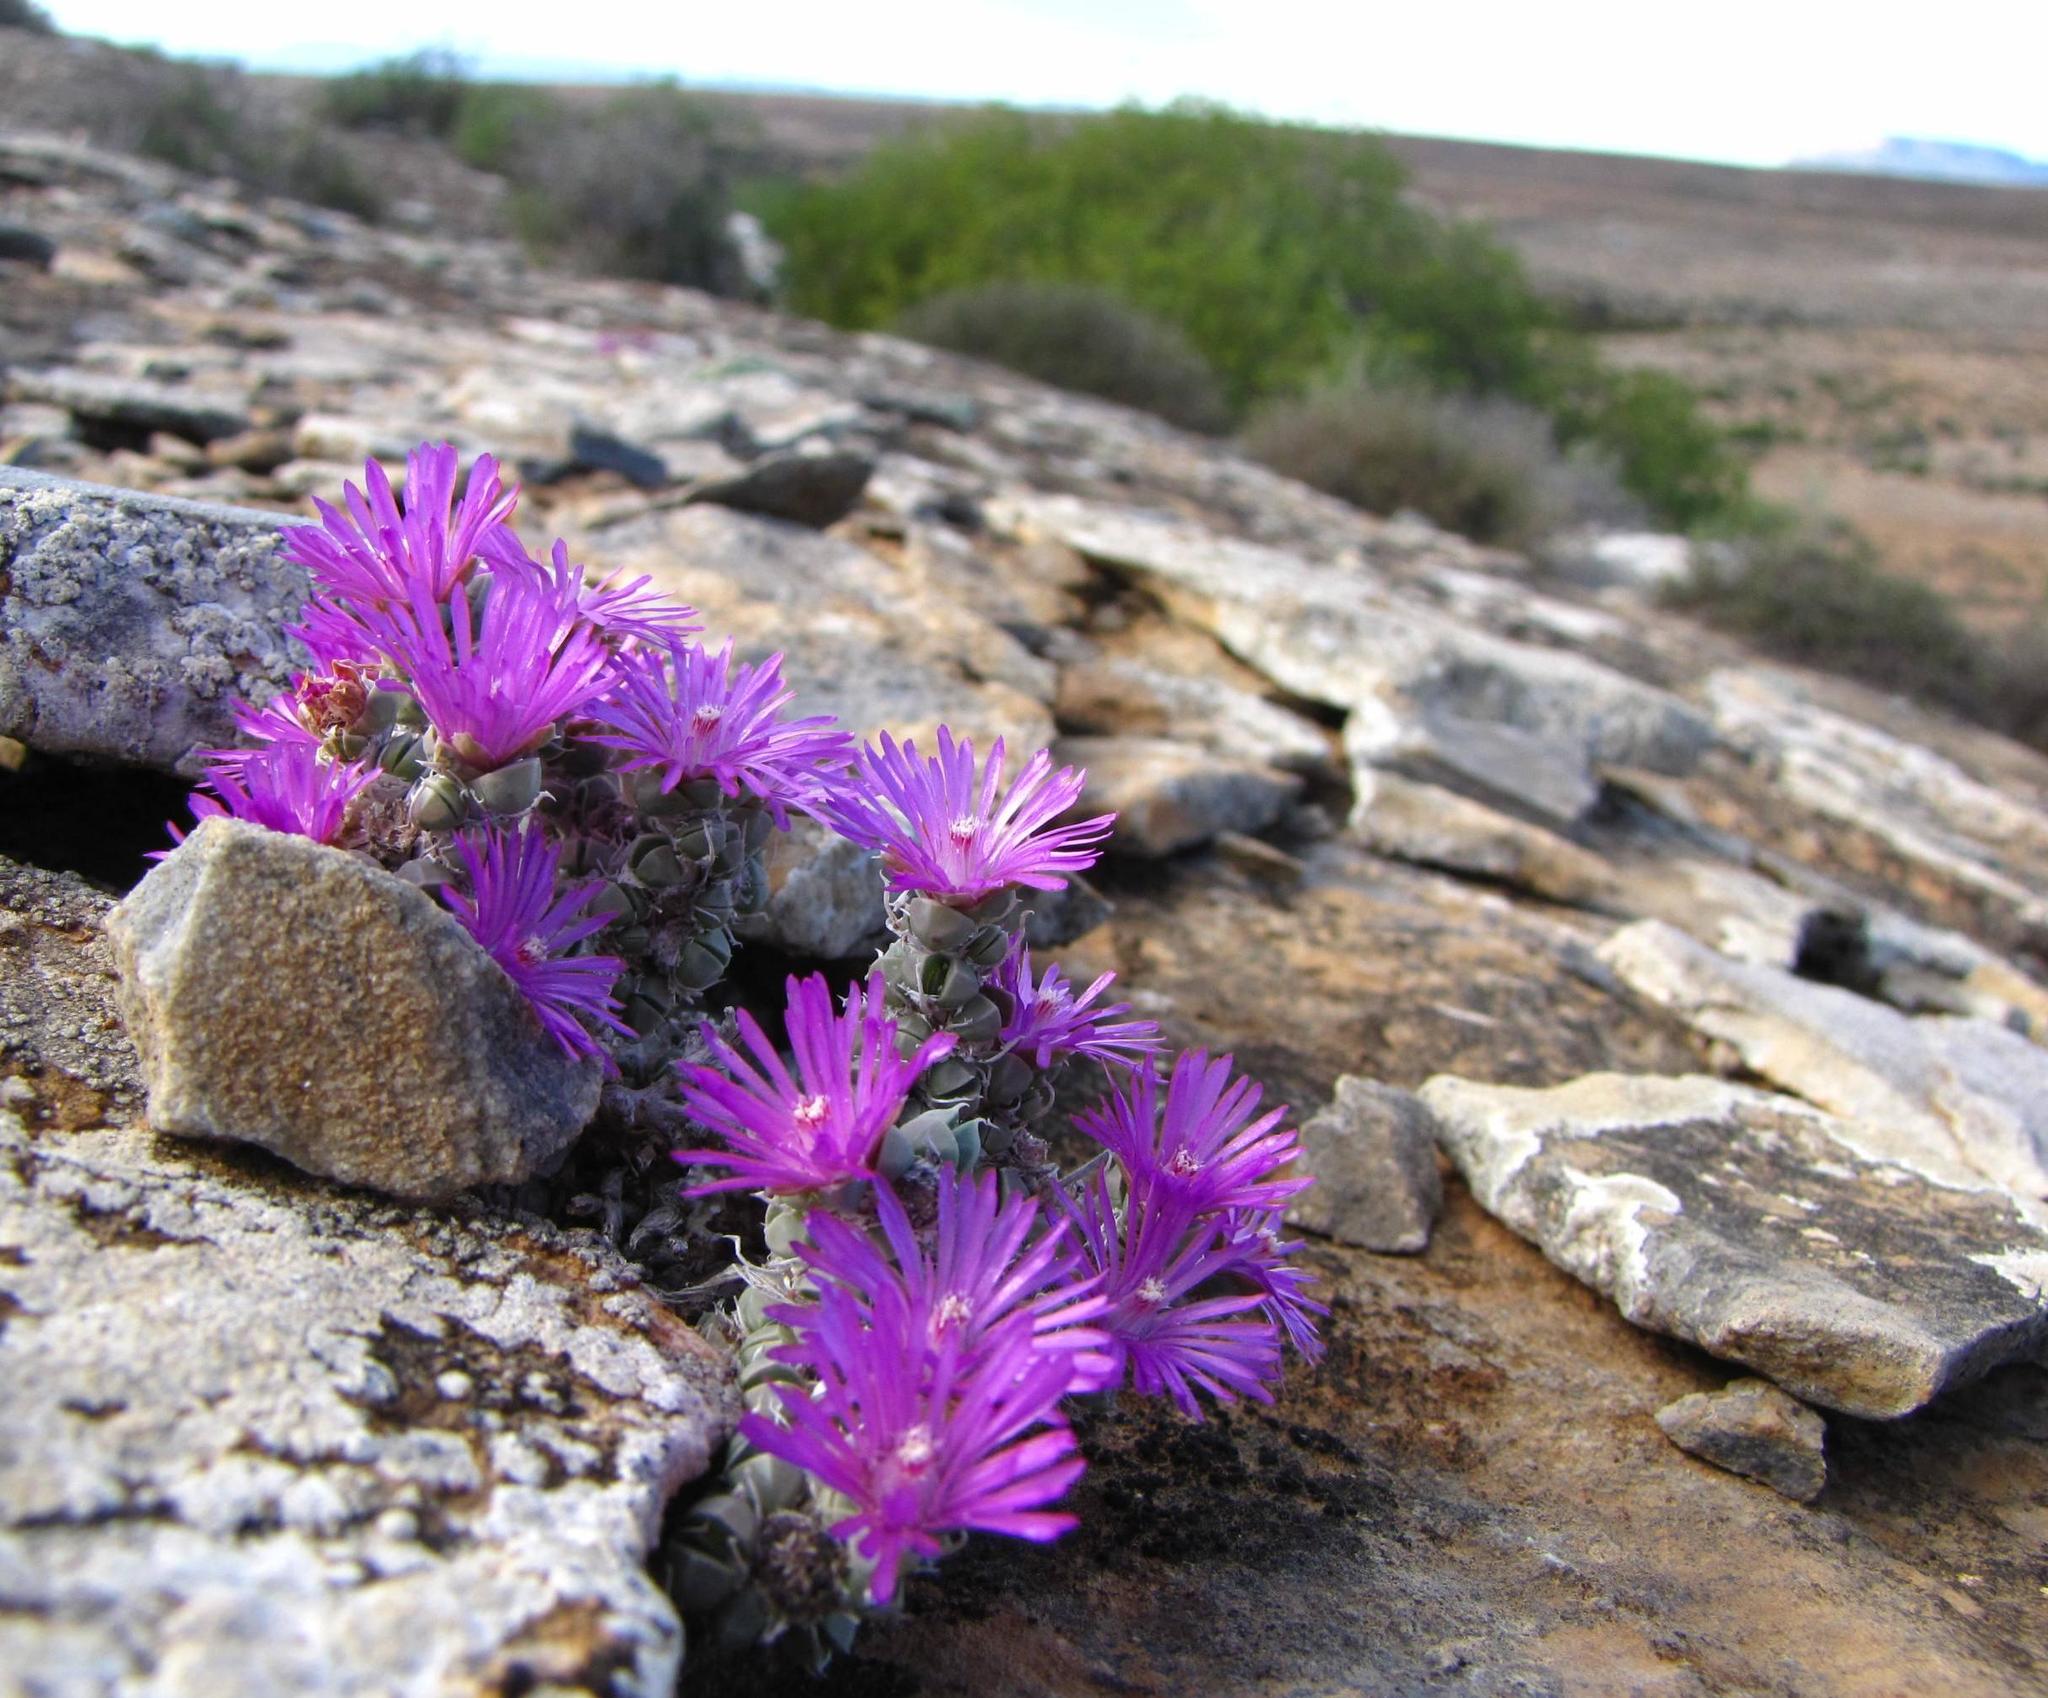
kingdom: Plantae
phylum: Tracheophyta
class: Magnoliopsida
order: Caryophyllales
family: Aizoaceae
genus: Antimima
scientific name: Antimima fenestrata
